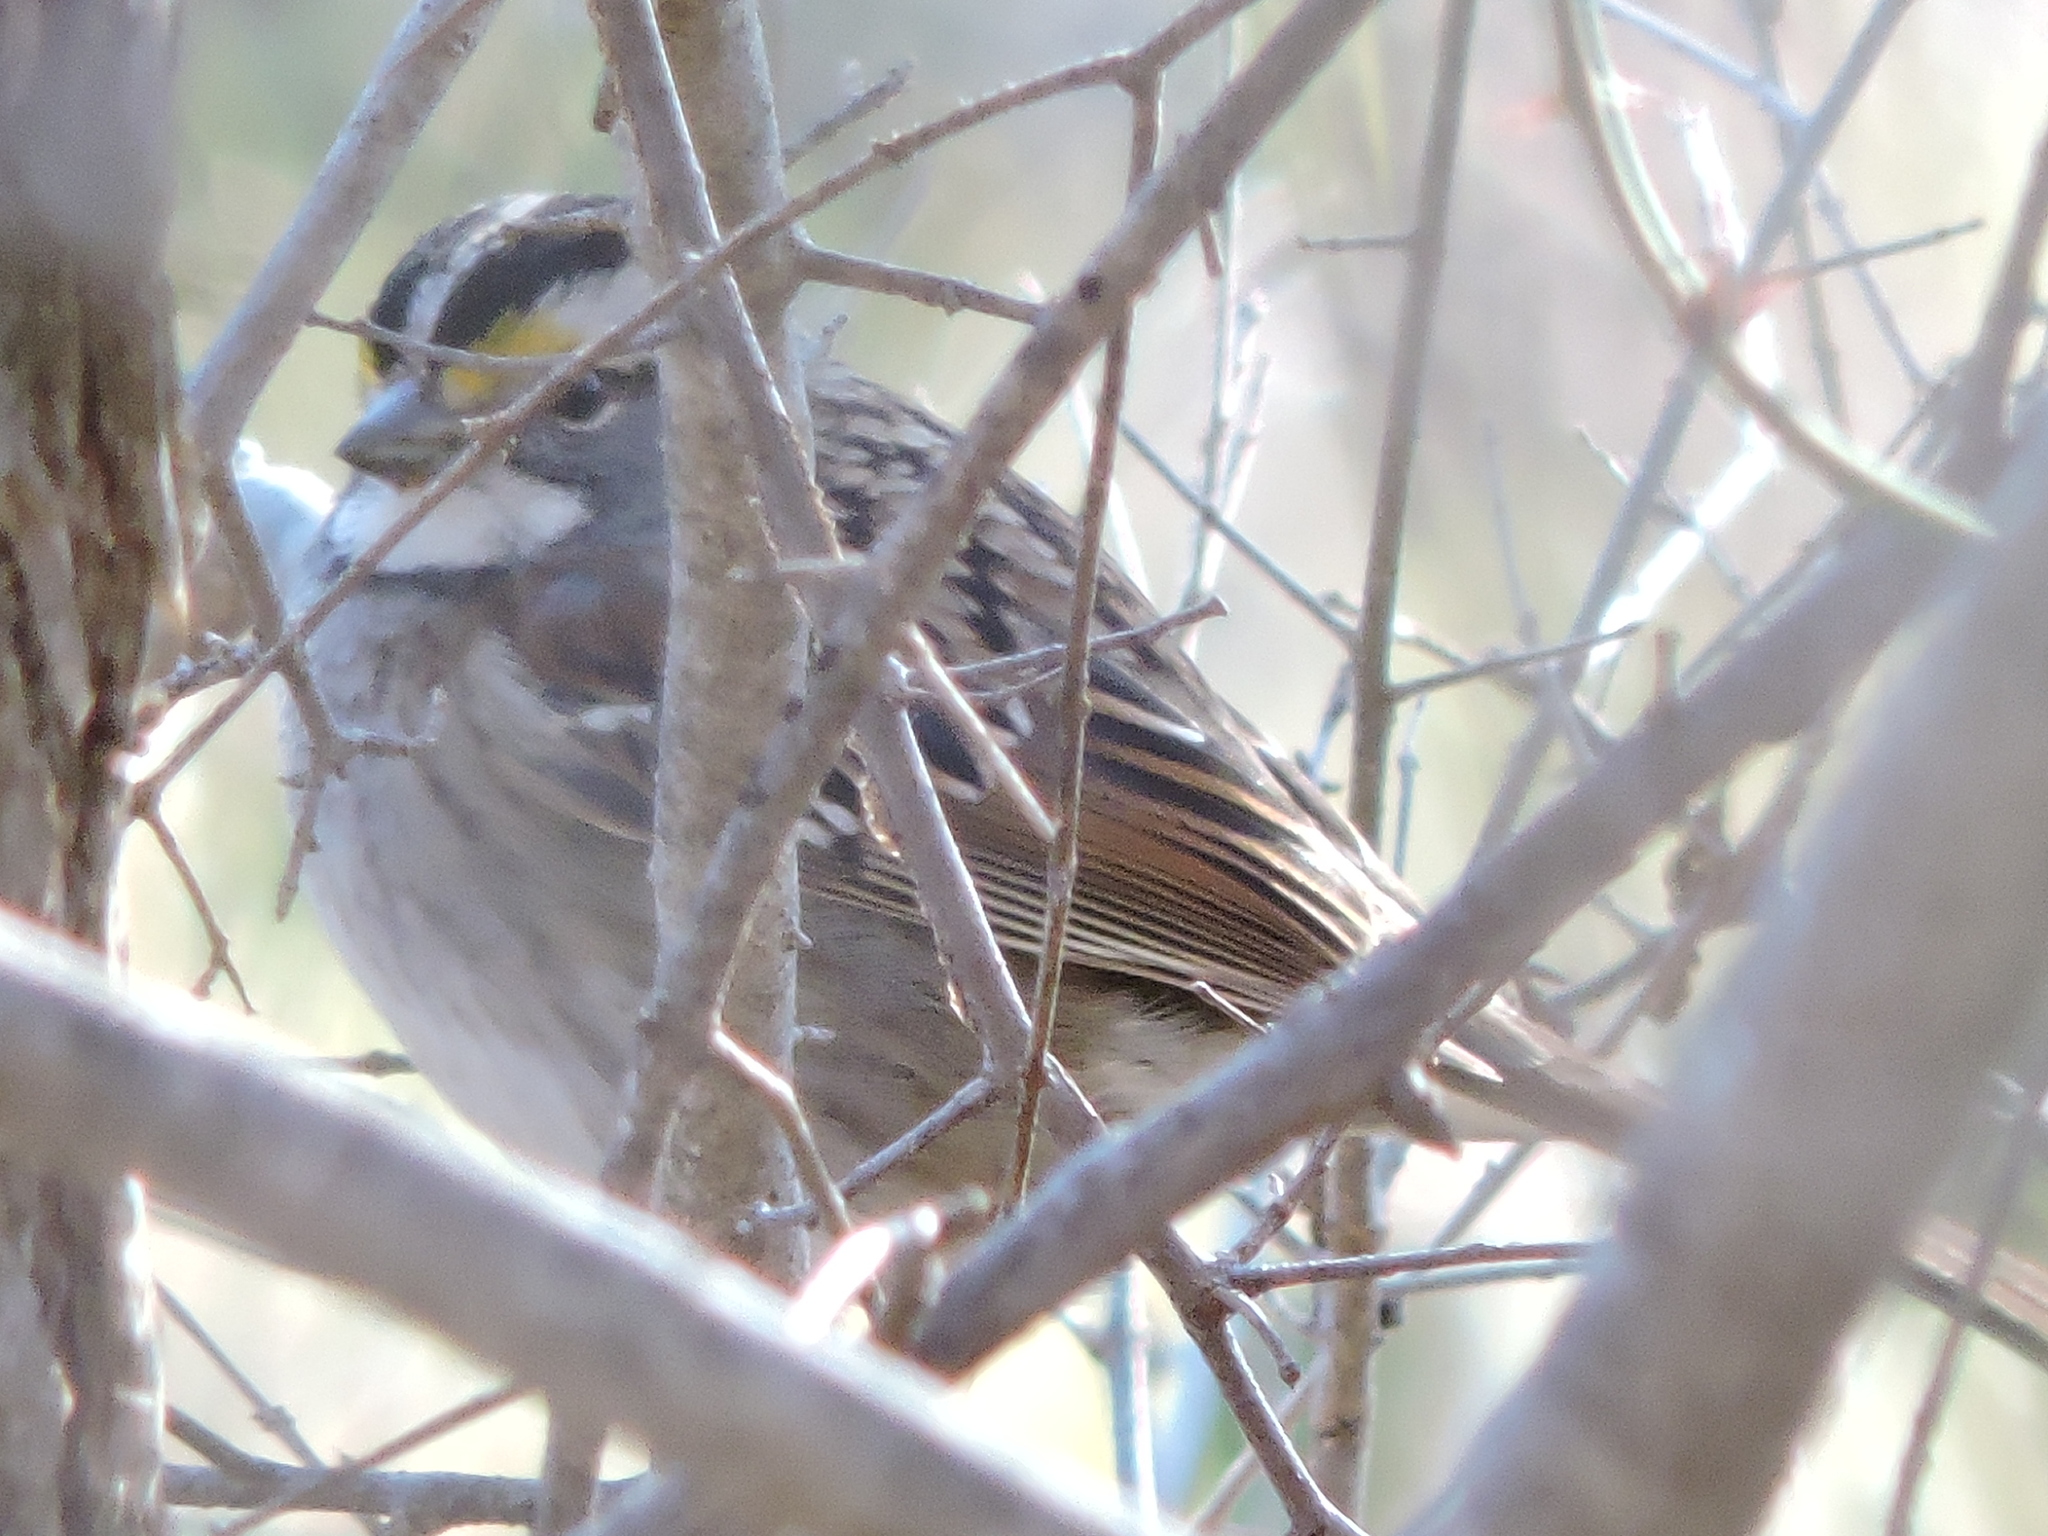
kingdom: Animalia
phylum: Chordata
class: Aves
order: Passeriformes
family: Passerellidae
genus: Zonotrichia
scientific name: Zonotrichia albicollis
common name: White-throated sparrow
